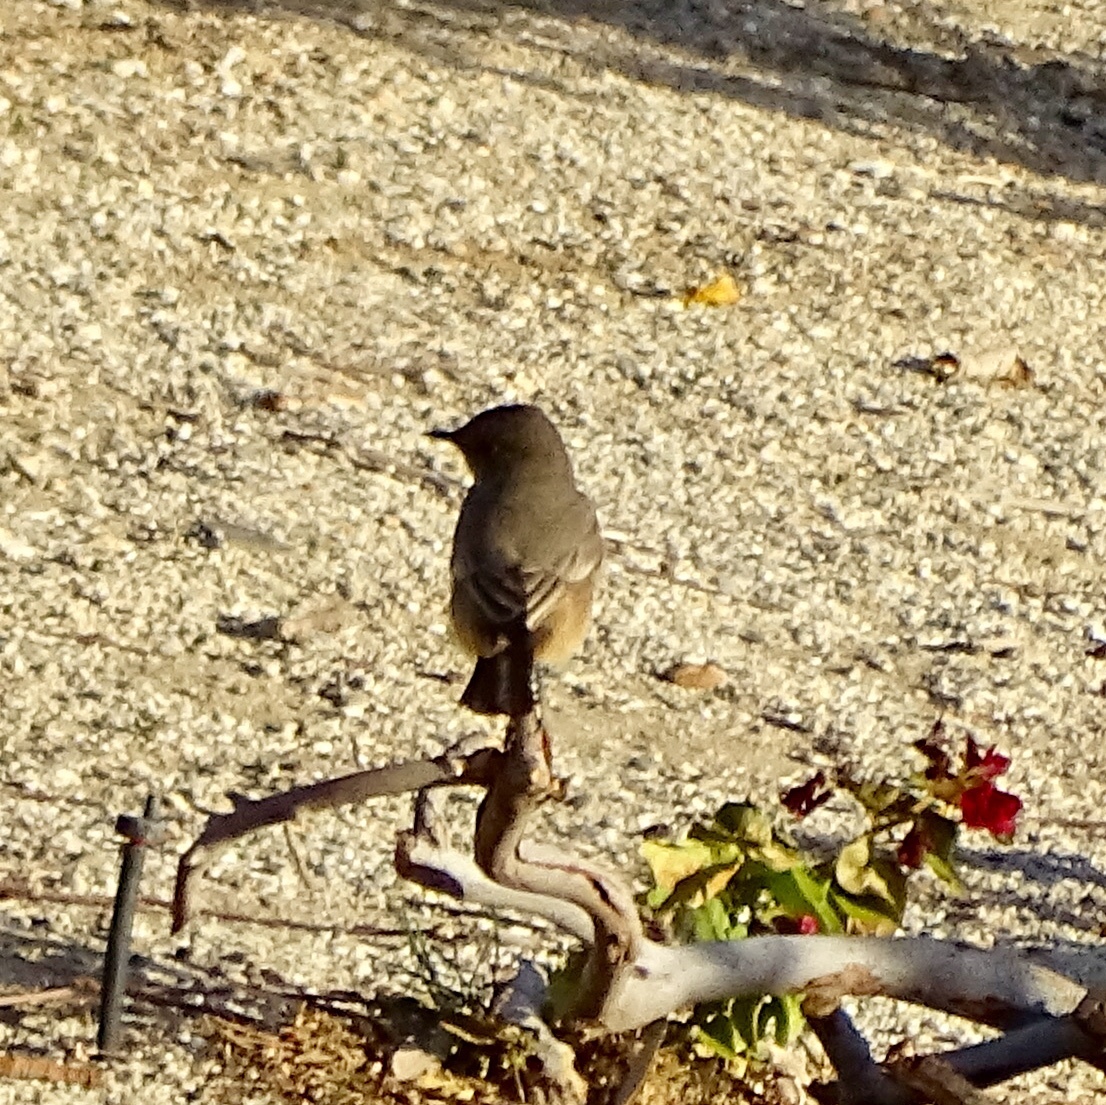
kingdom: Animalia
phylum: Chordata
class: Aves
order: Passeriformes
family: Tyrannidae
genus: Sayornis
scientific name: Sayornis saya
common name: Say's phoebe
